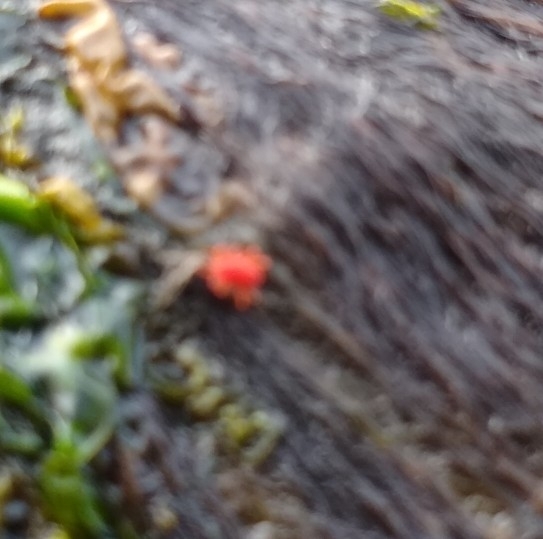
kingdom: Animalia
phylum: Arthropoda
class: Arachnida
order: Trombidiformes
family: Bdellidae
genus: Neomolgus
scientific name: Neomolgus littoralis
